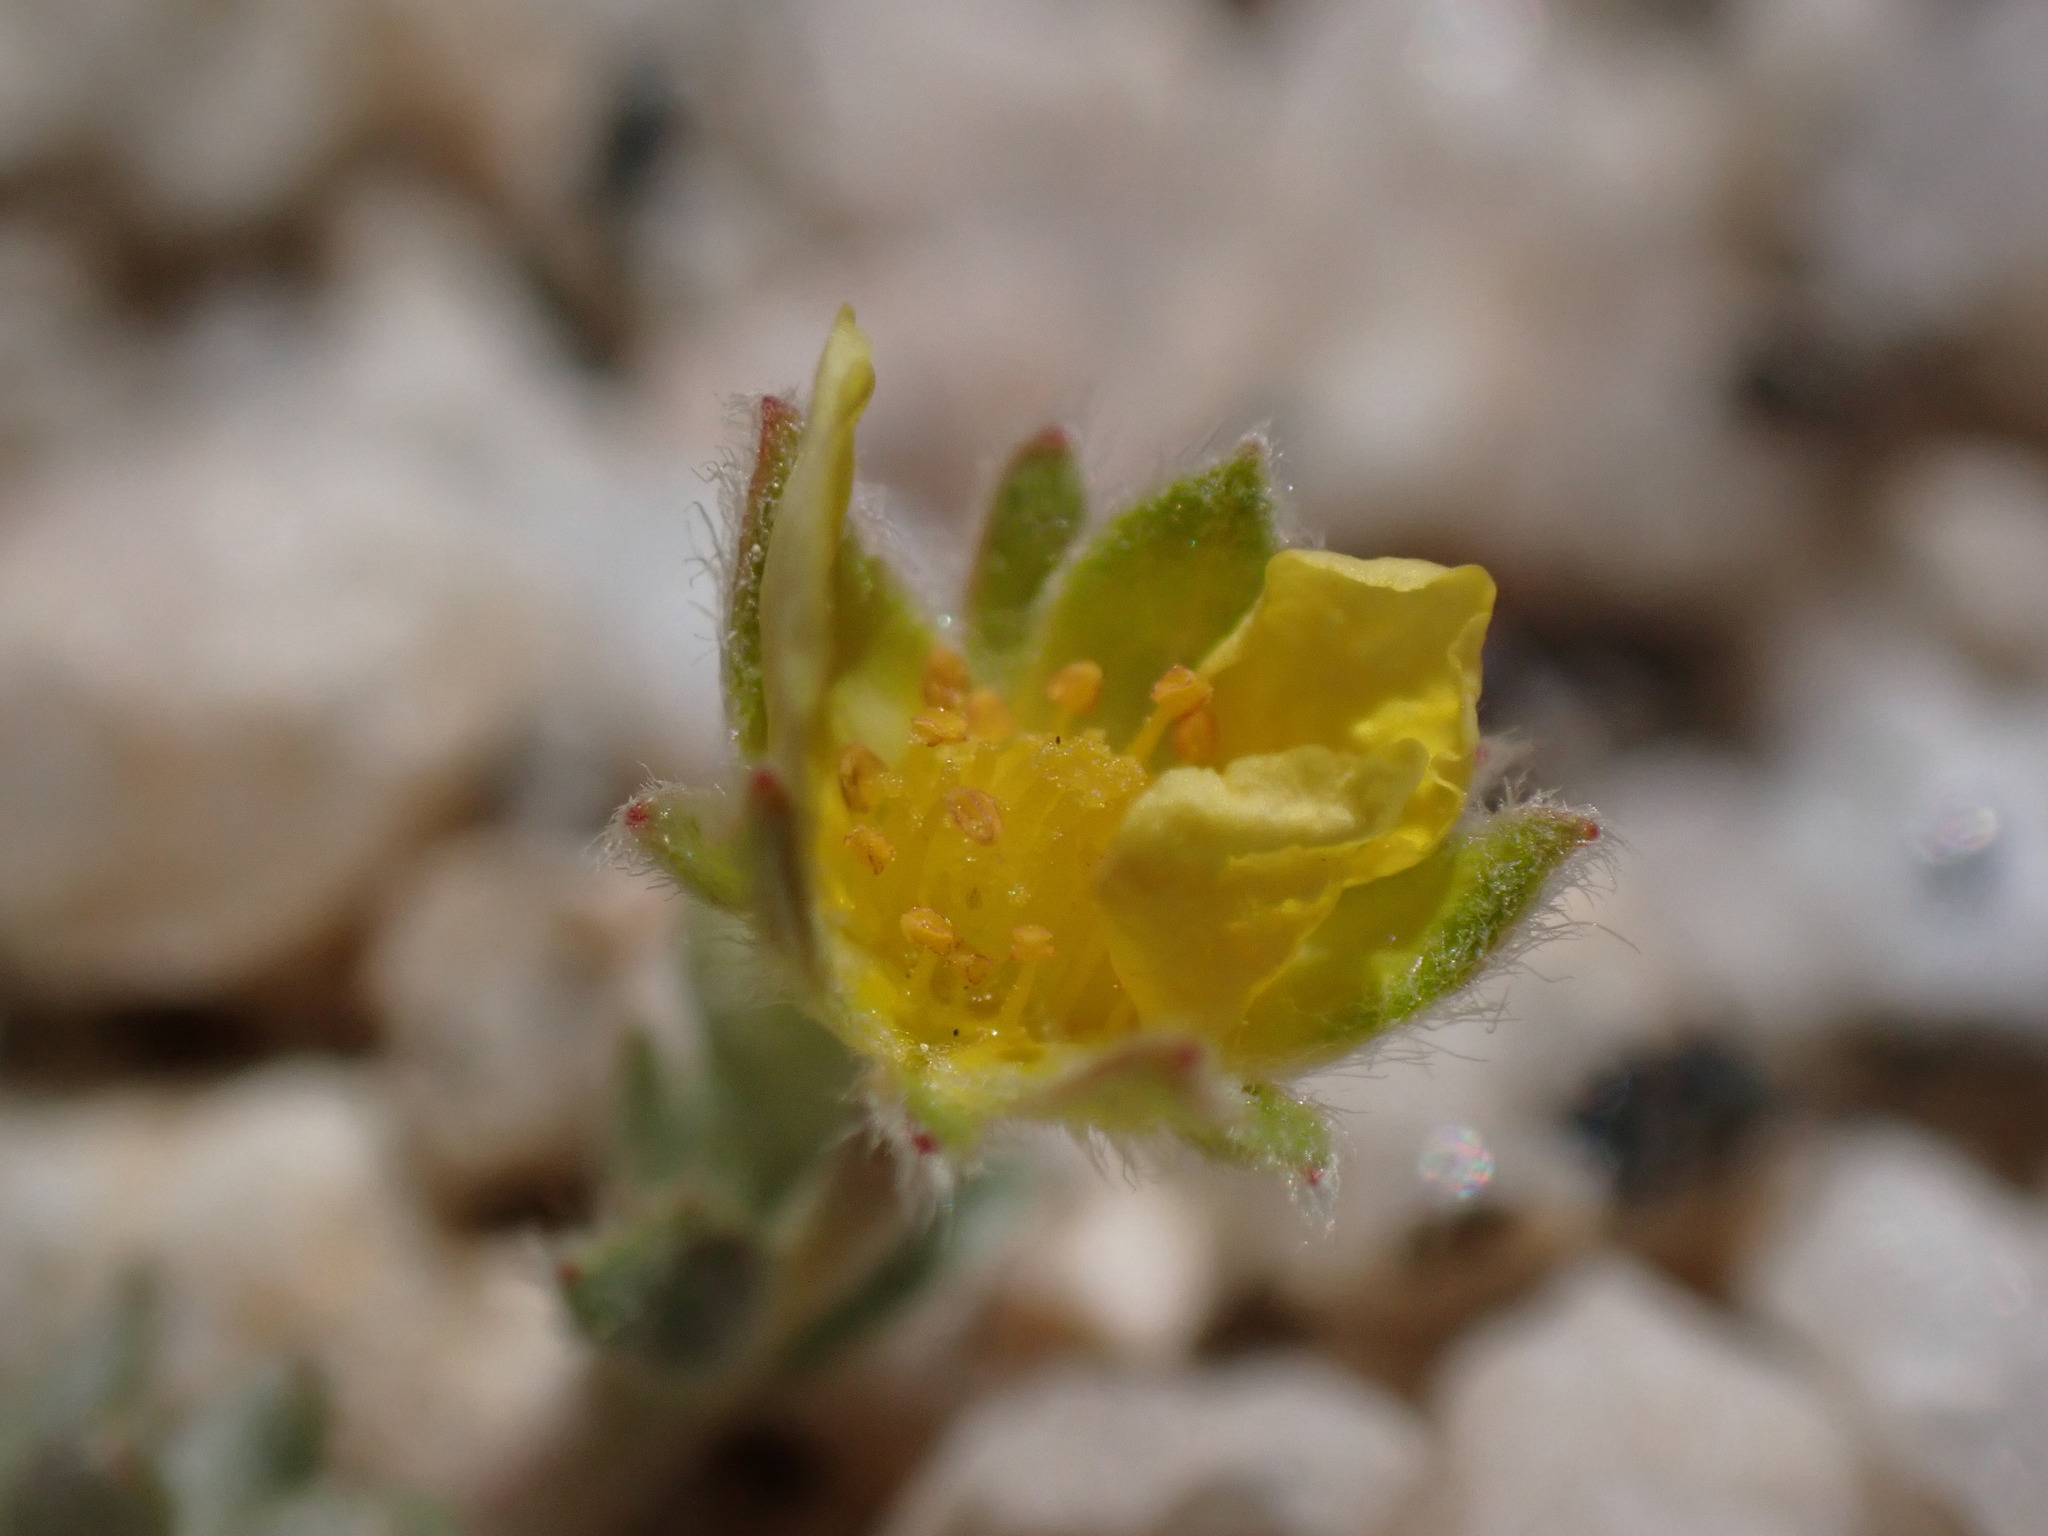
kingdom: Plantae
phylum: Tracheophyta
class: Magnoliopsida
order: Rosales
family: Rosaceae
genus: Potentilla
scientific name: Potentilla pseudosericea
